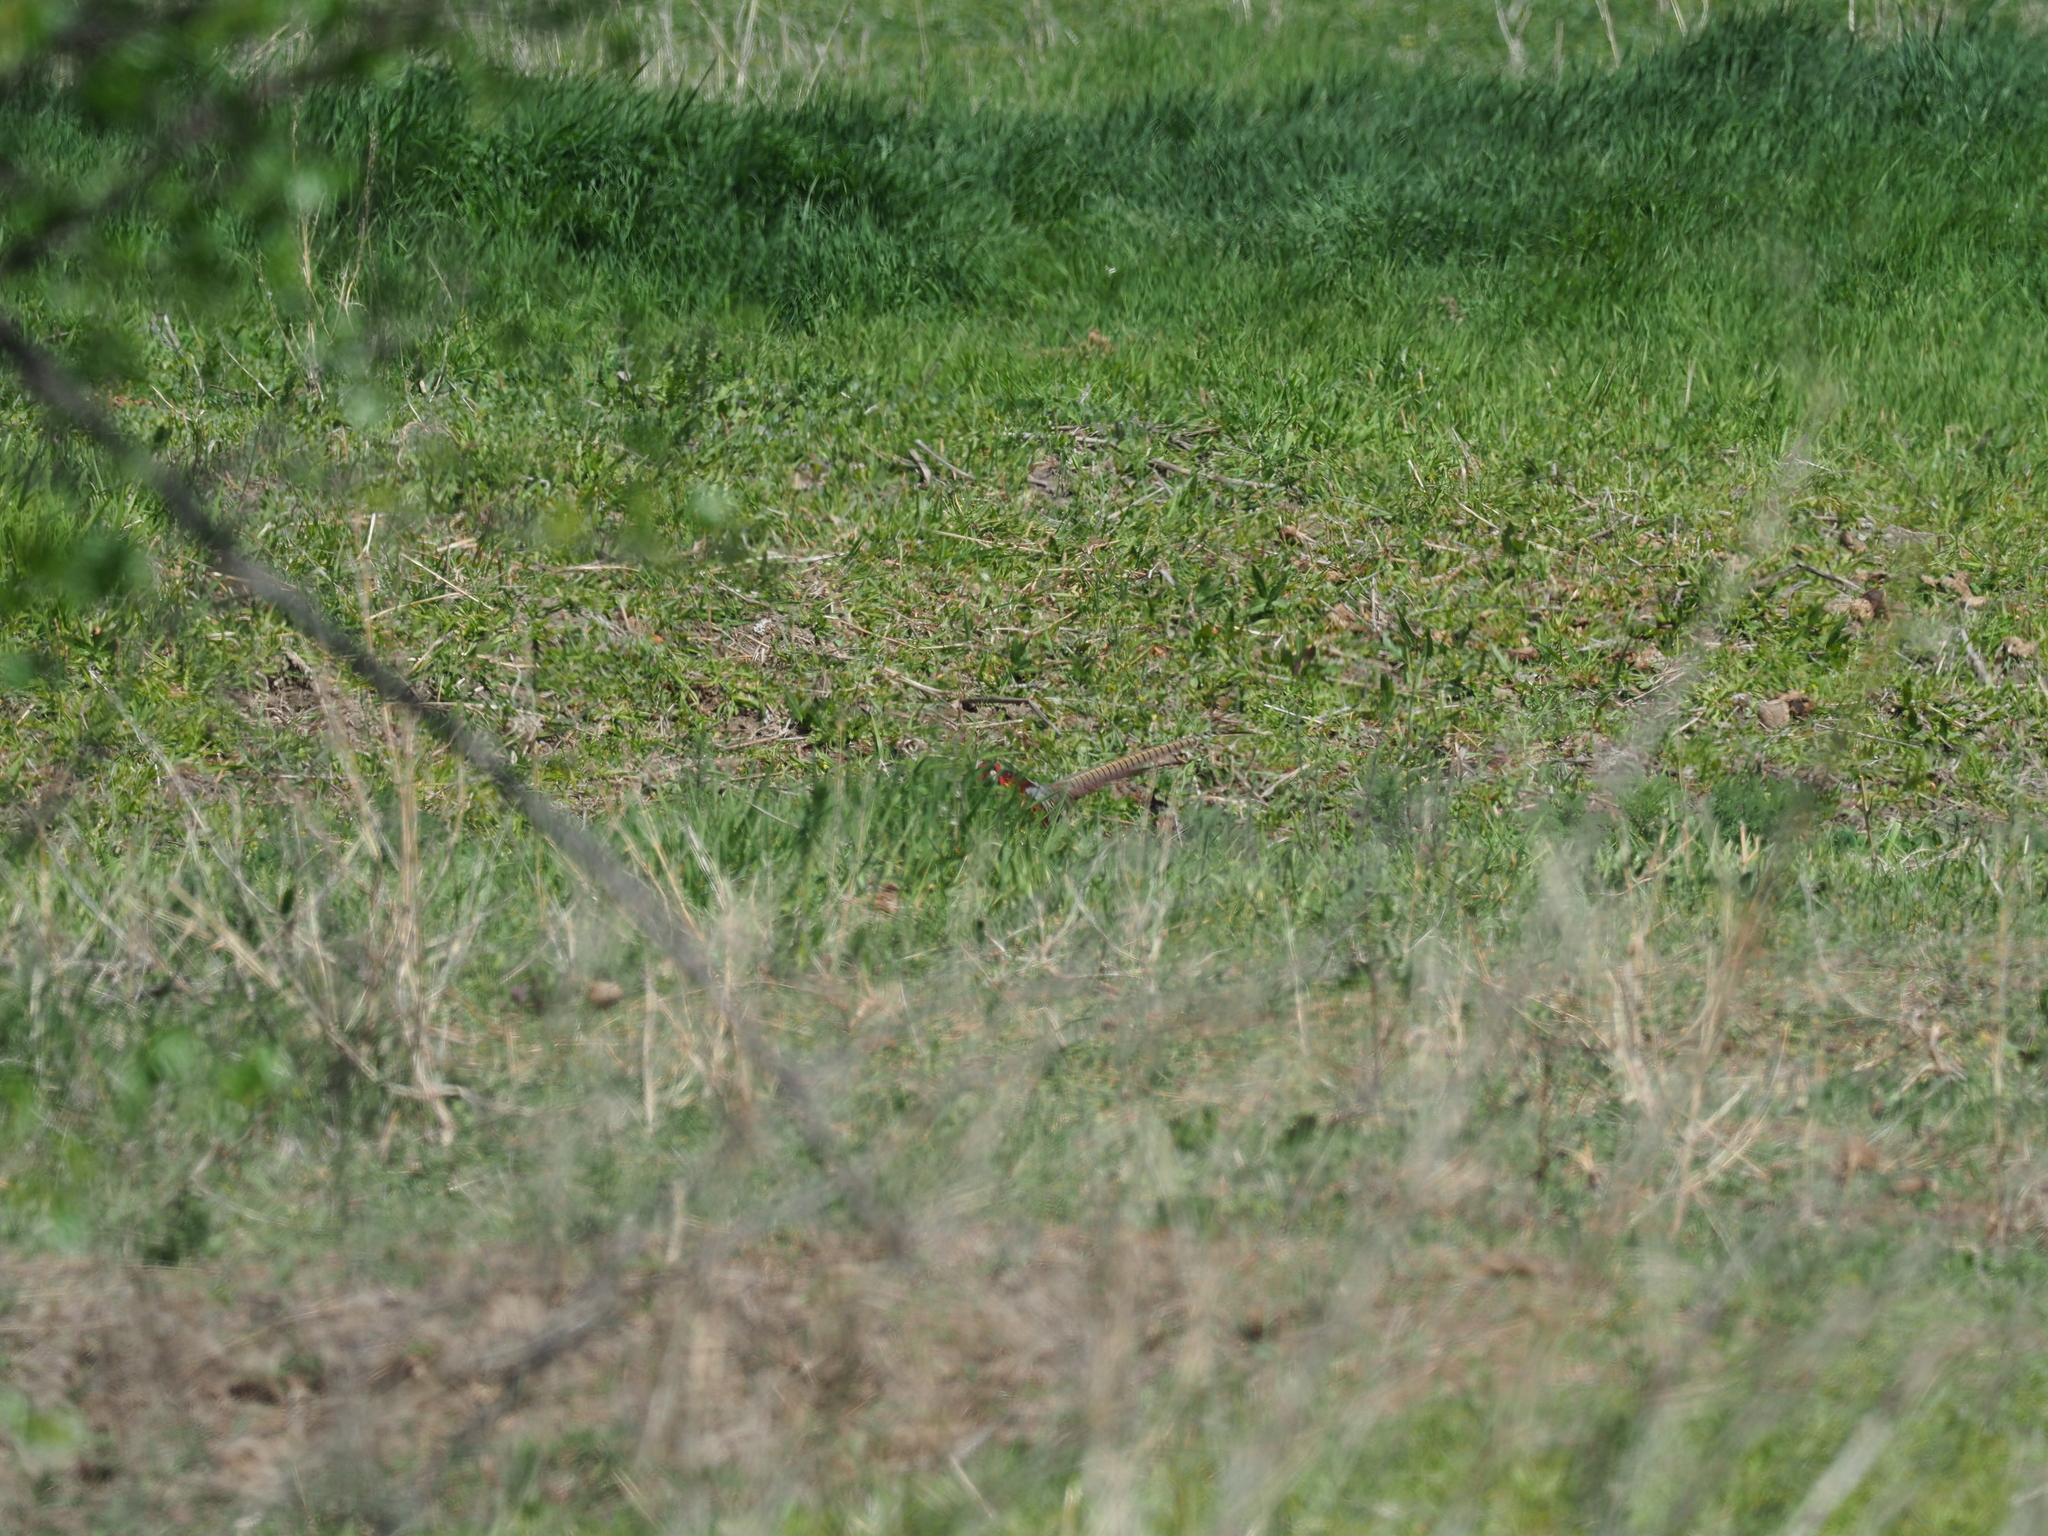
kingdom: Animalia
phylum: Chordata
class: Aves
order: Galliformes
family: Phasianidae
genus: Phasianus
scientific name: Phasianus colchicus
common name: Common pheasant
